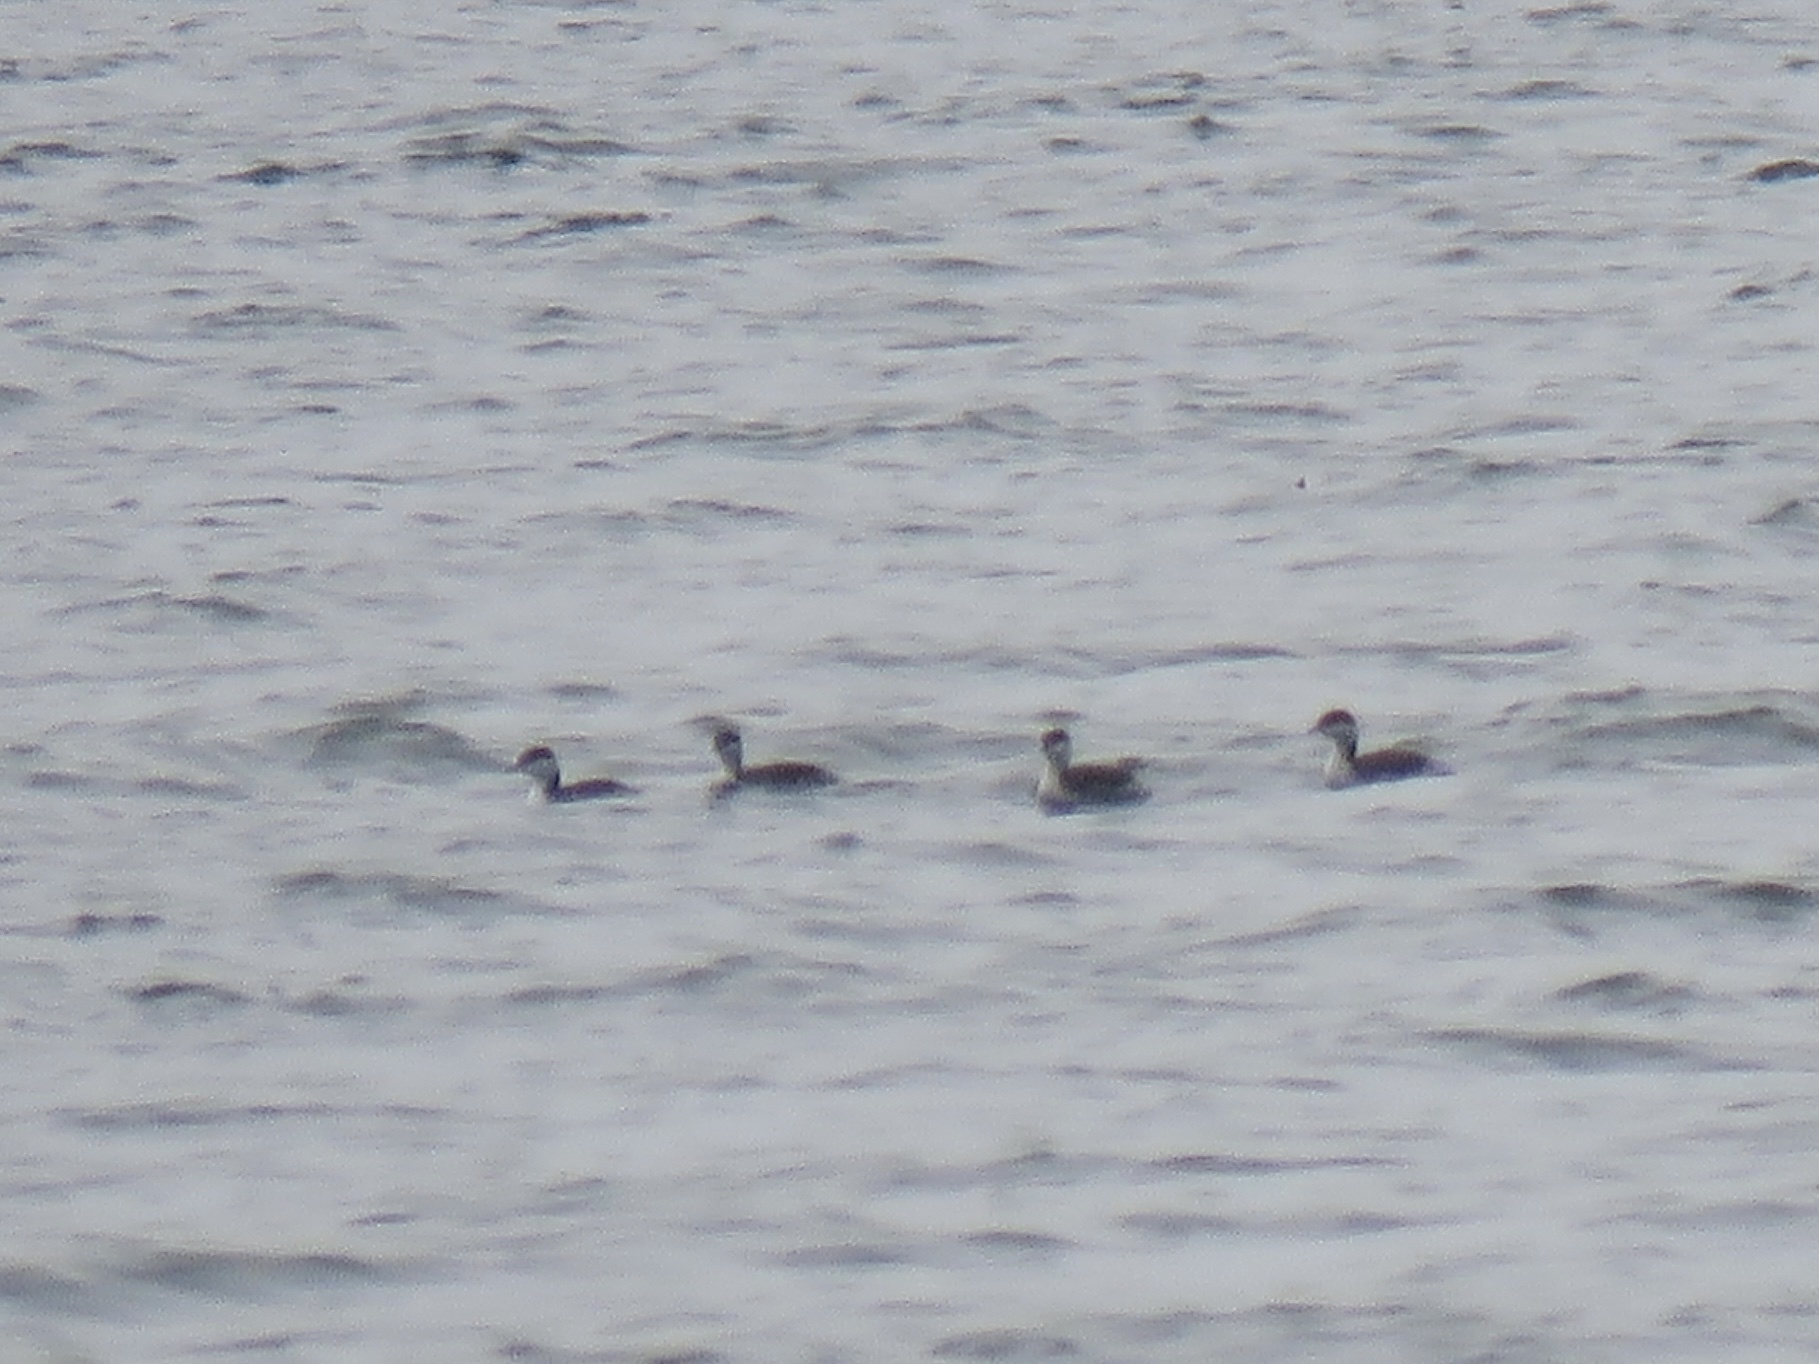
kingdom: Animalia
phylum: Chordata
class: Aves
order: Podicipediformes
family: Podicipedidae
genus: Podiceps
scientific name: Podiceps auritus
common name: Horned grebe
